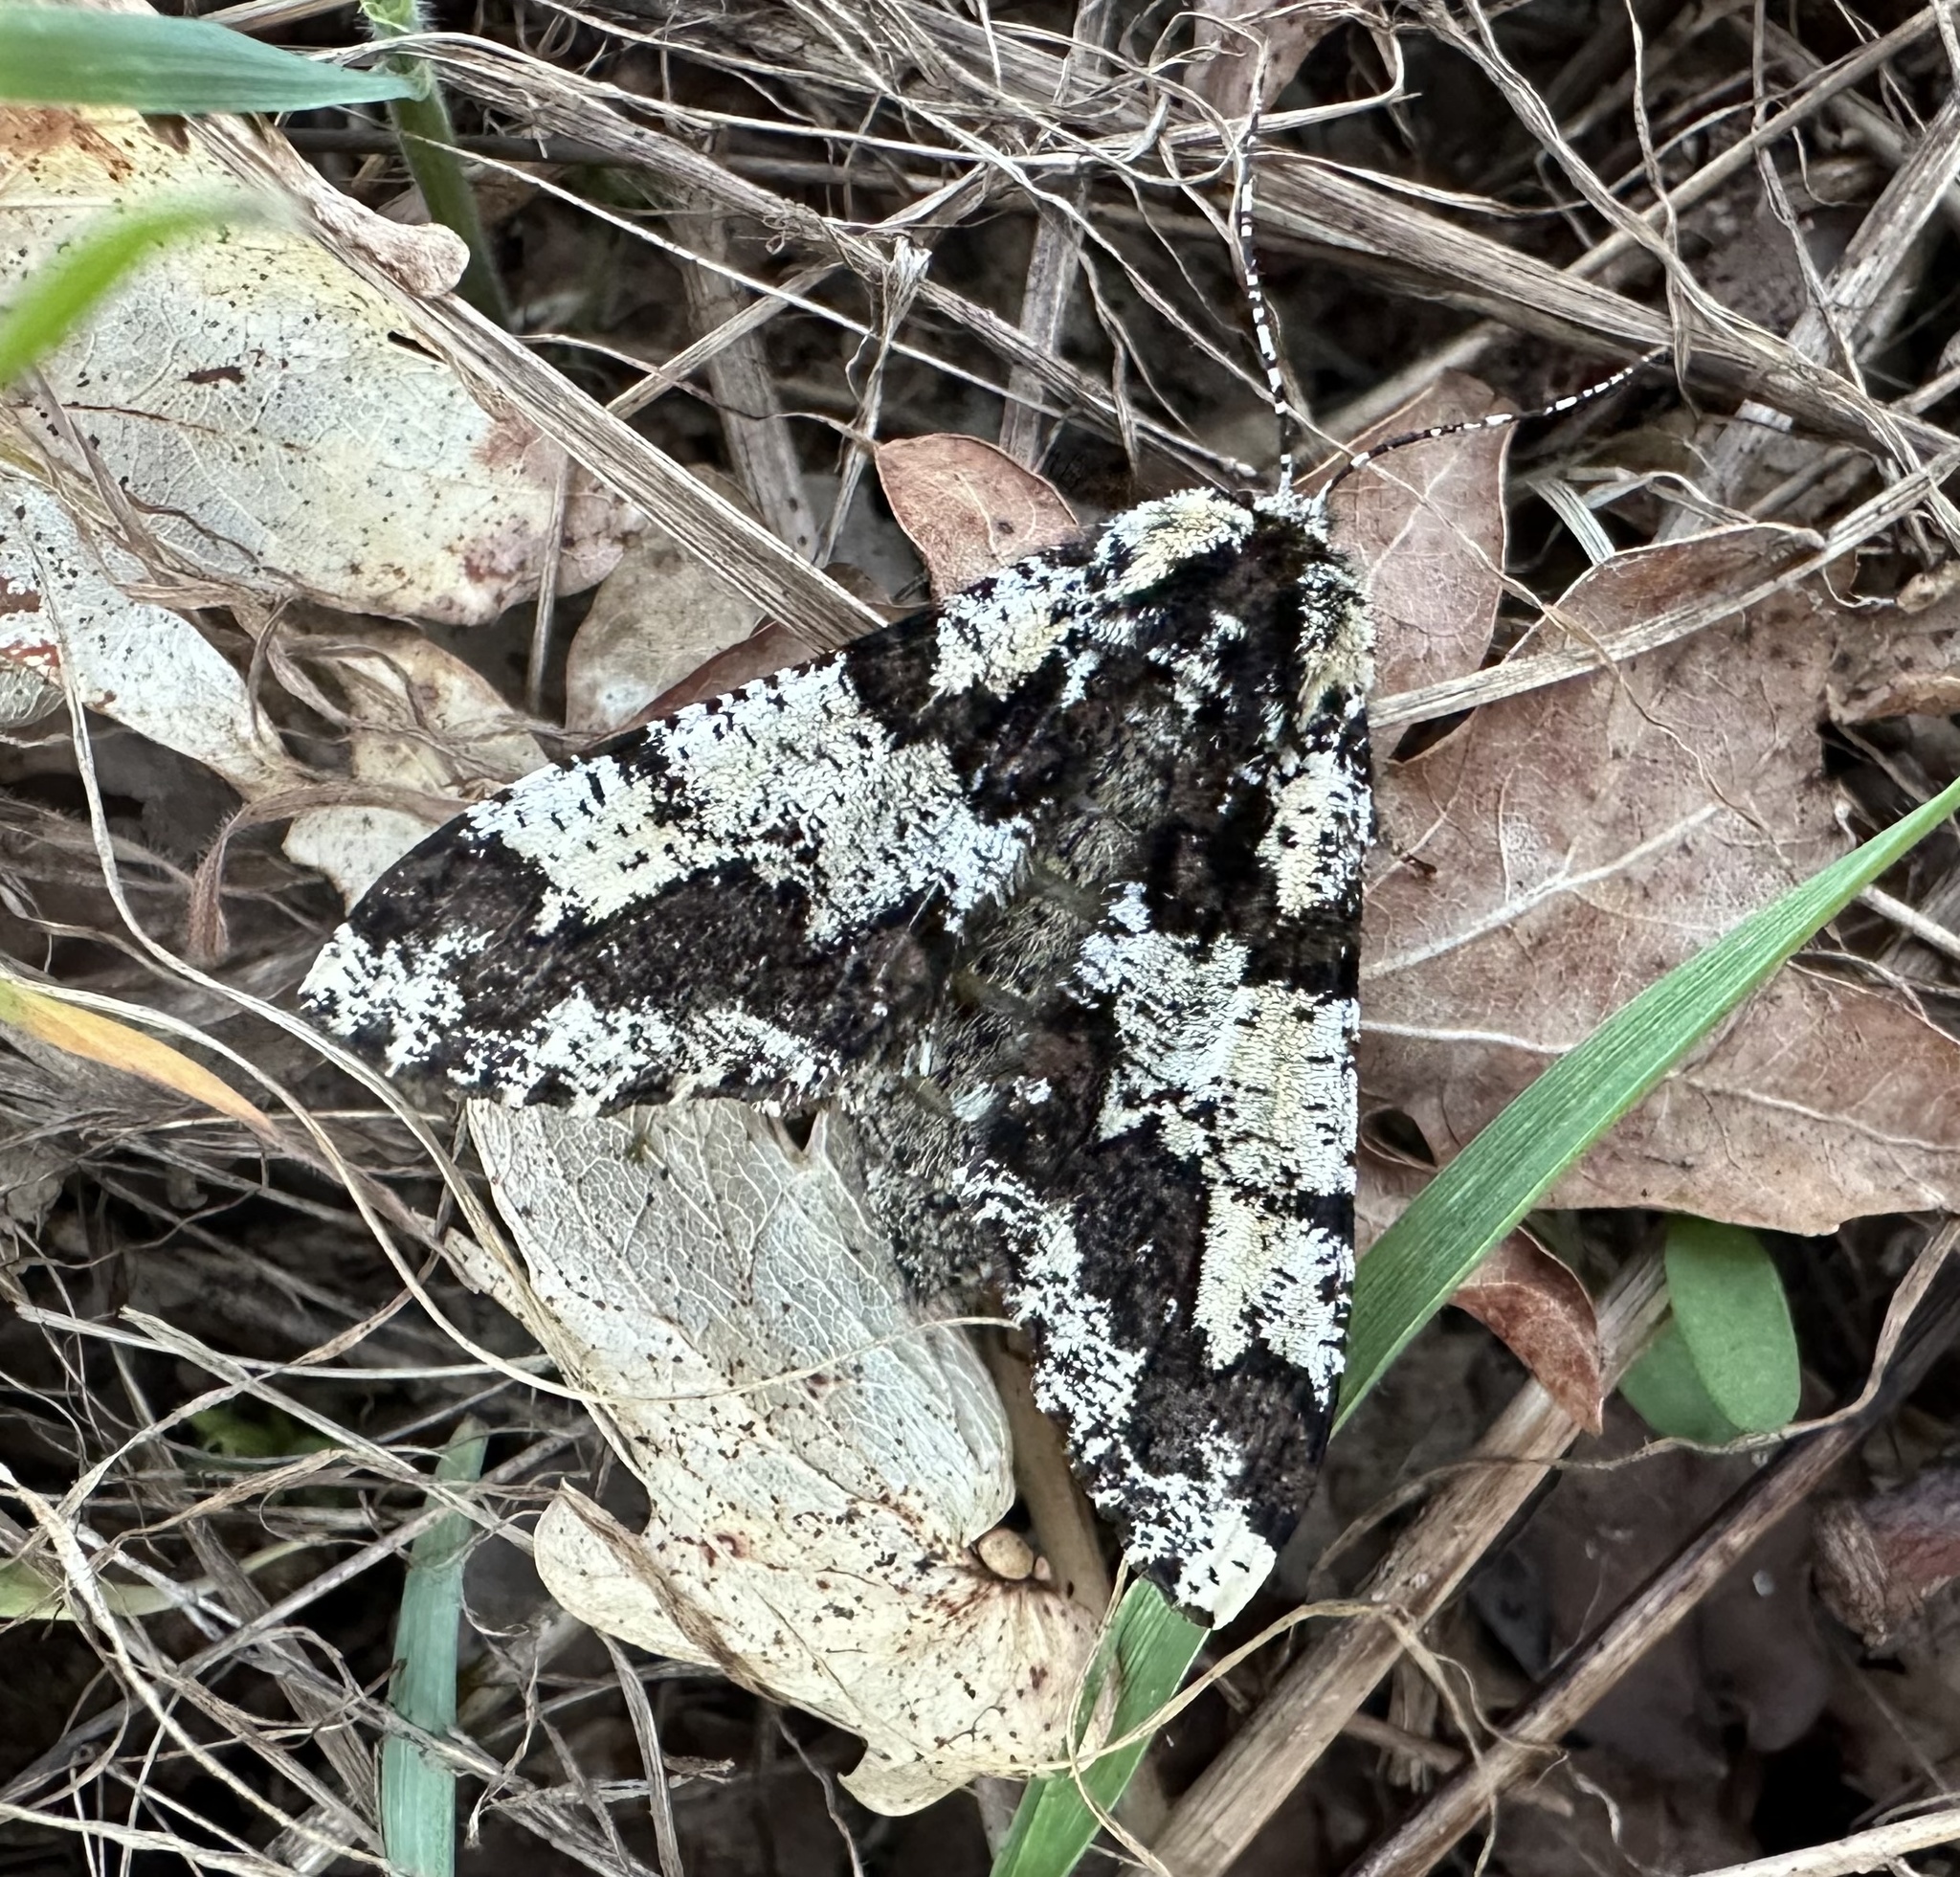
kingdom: Animalia
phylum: Arthropoda
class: Insecta
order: Lepidoptera
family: Geometridae
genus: Biston
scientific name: Biston strataria
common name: Oak beauty
